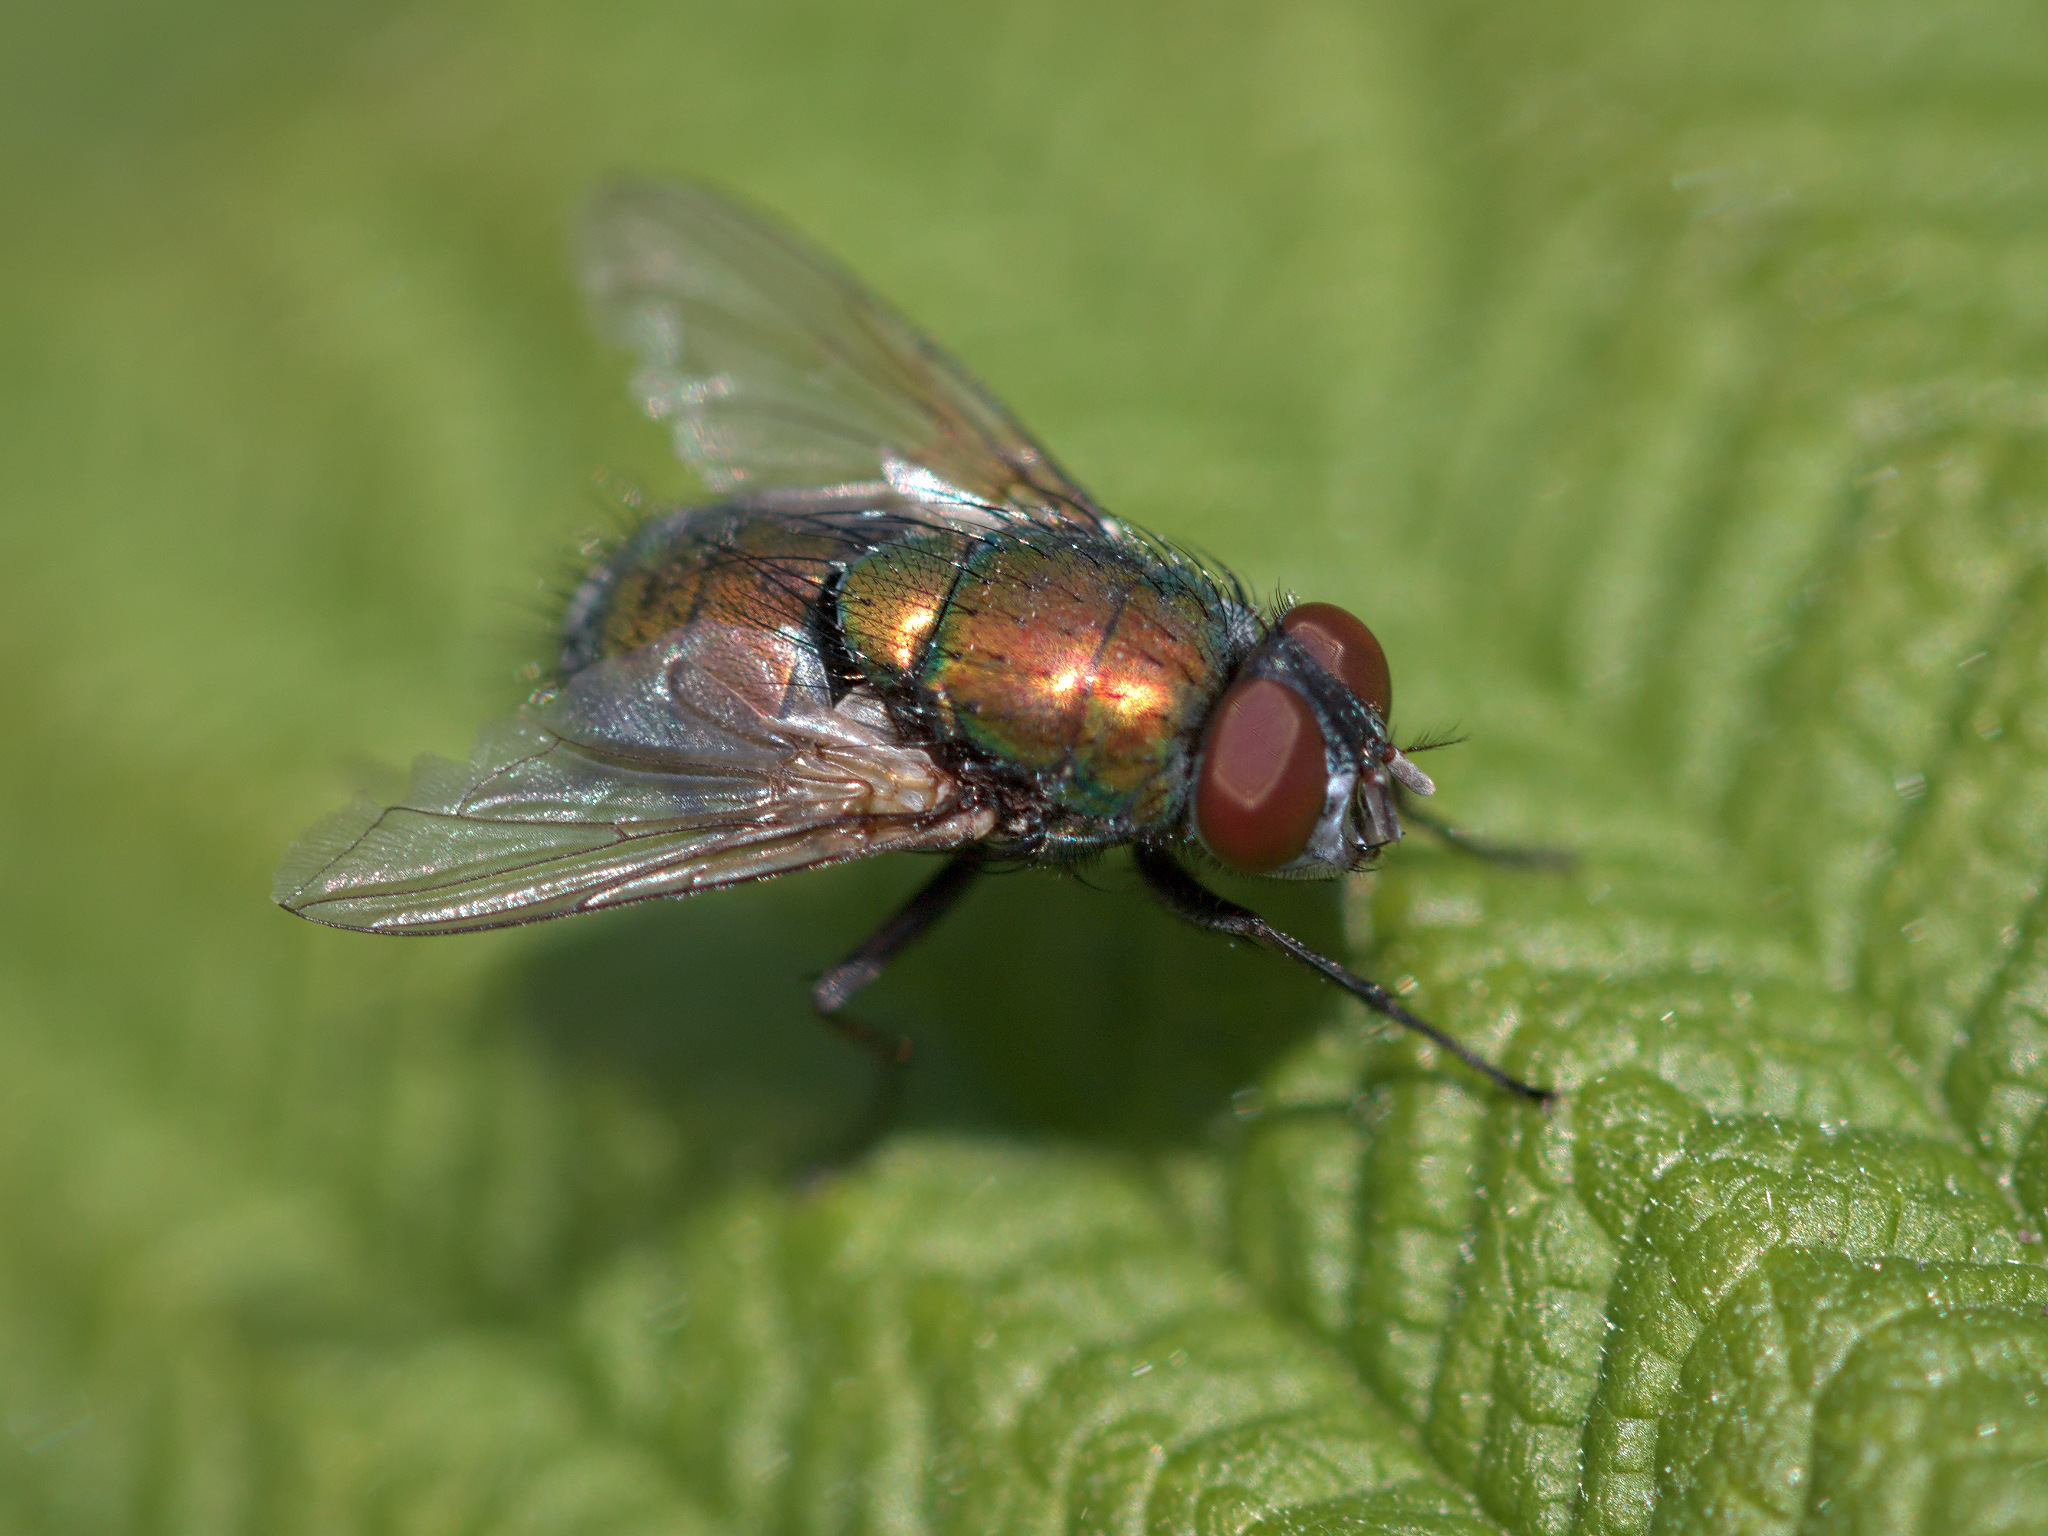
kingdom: Animalia
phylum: Arthropoda
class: Insecta
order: Diptera
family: Calliphoridae
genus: Lucilia
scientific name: Lucilia sericata
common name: Blow fly
